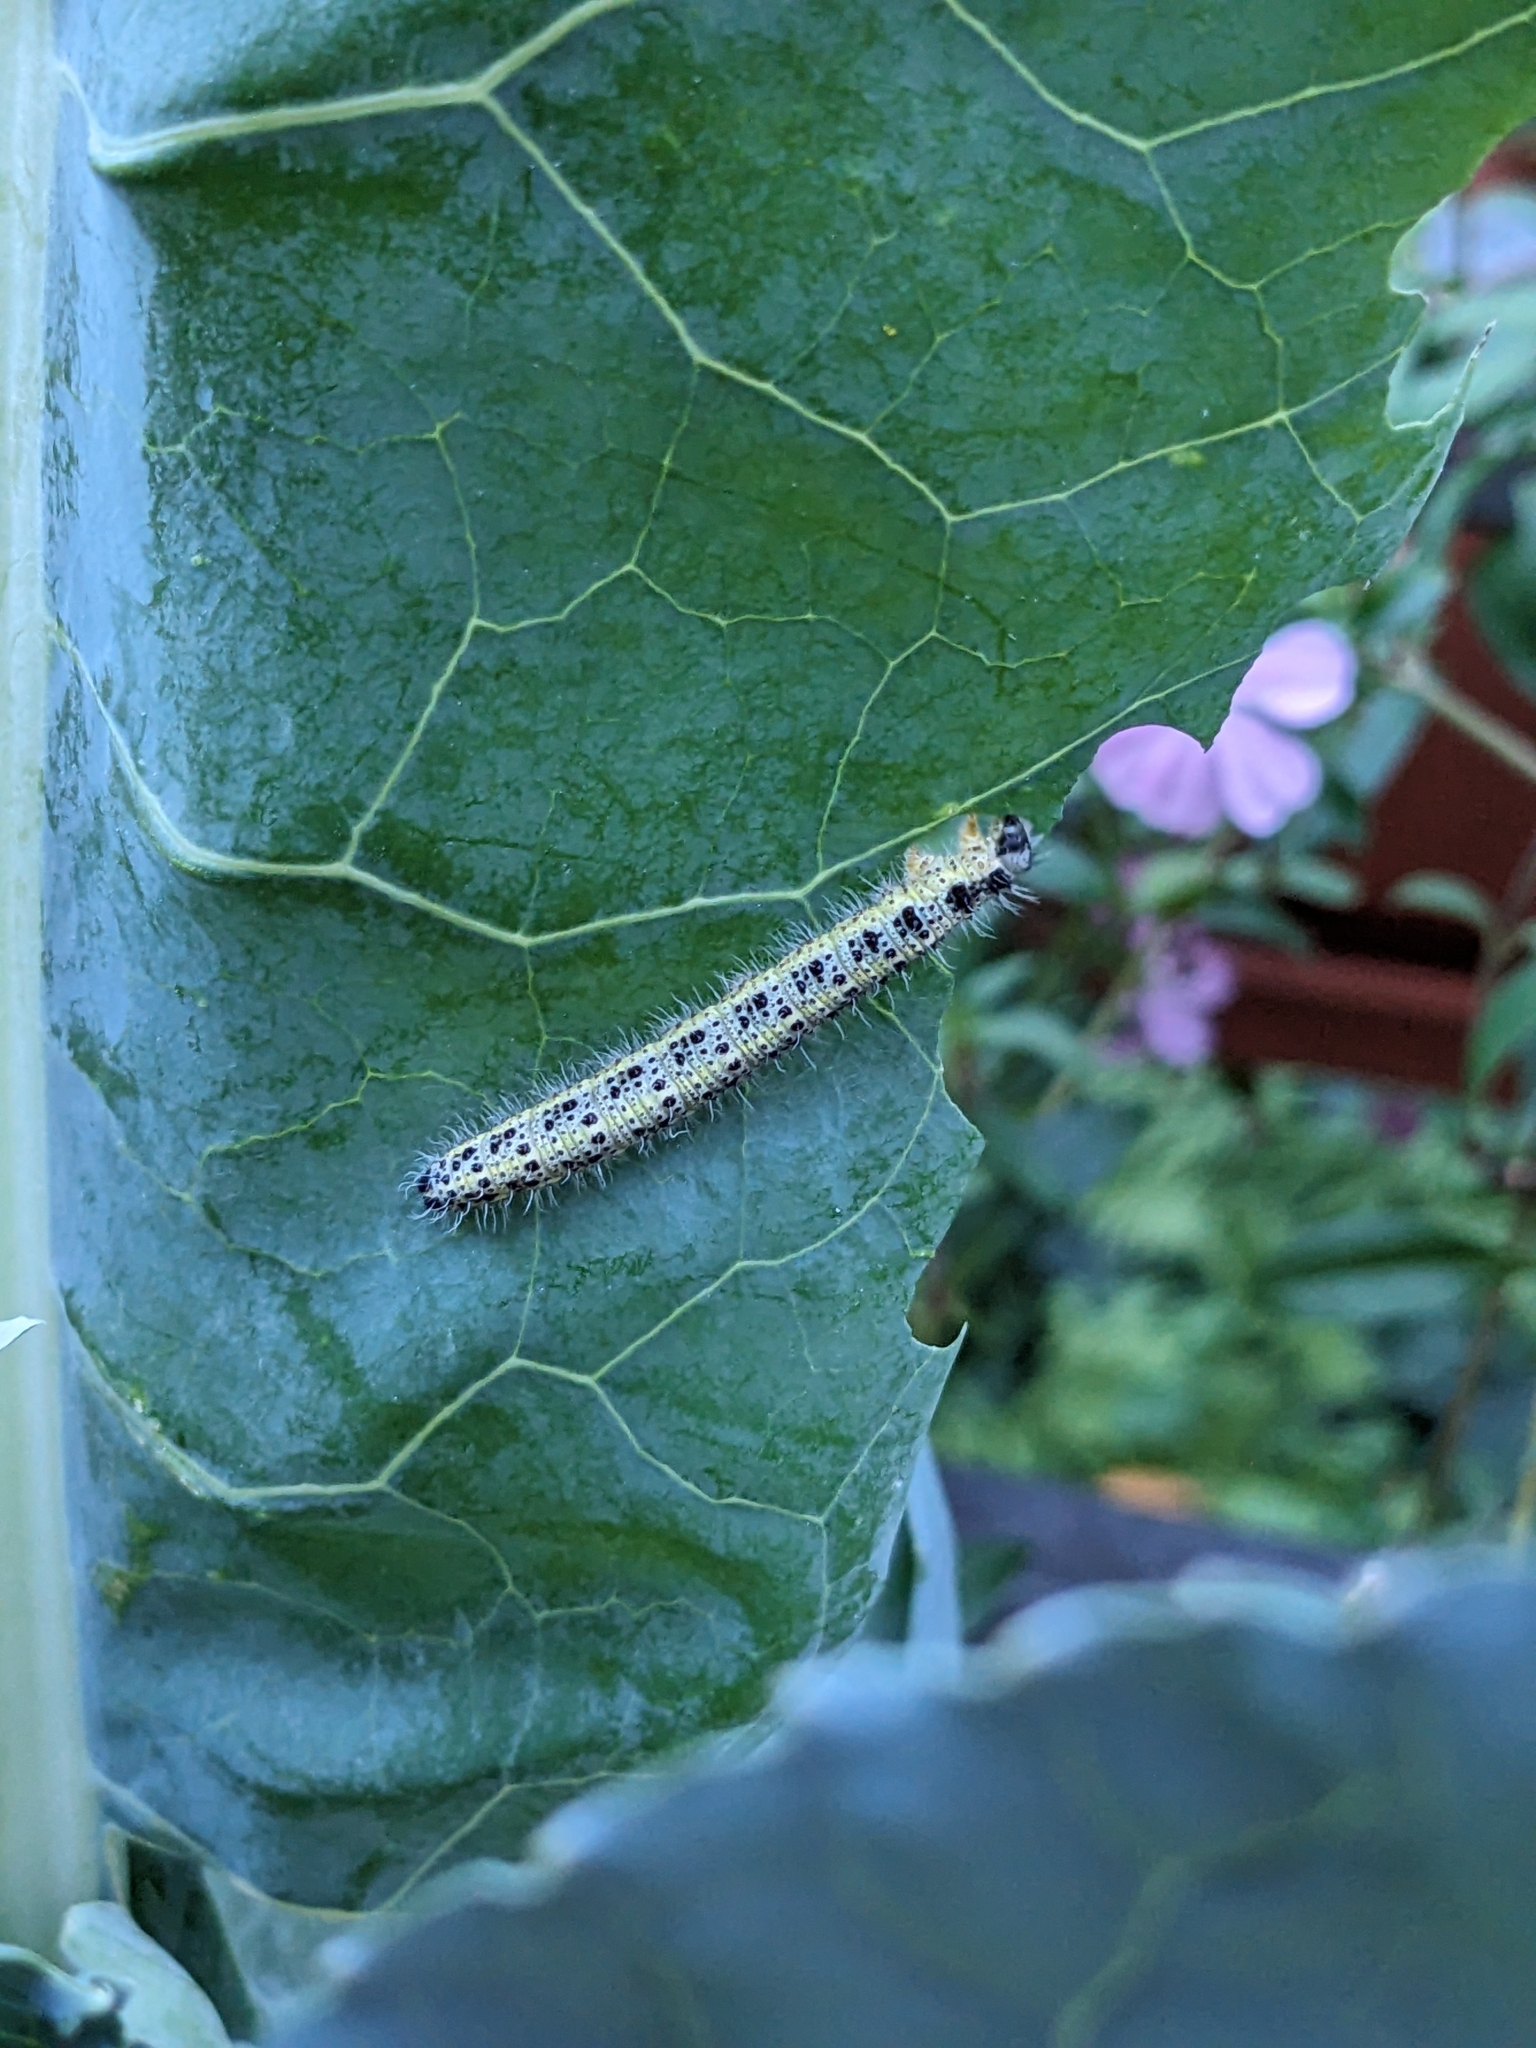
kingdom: Animalia
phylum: Arthropoda
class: Insecta
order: Lepidoptera
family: Pieridae
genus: Pieris
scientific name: Pieris brassicae
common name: Large white
